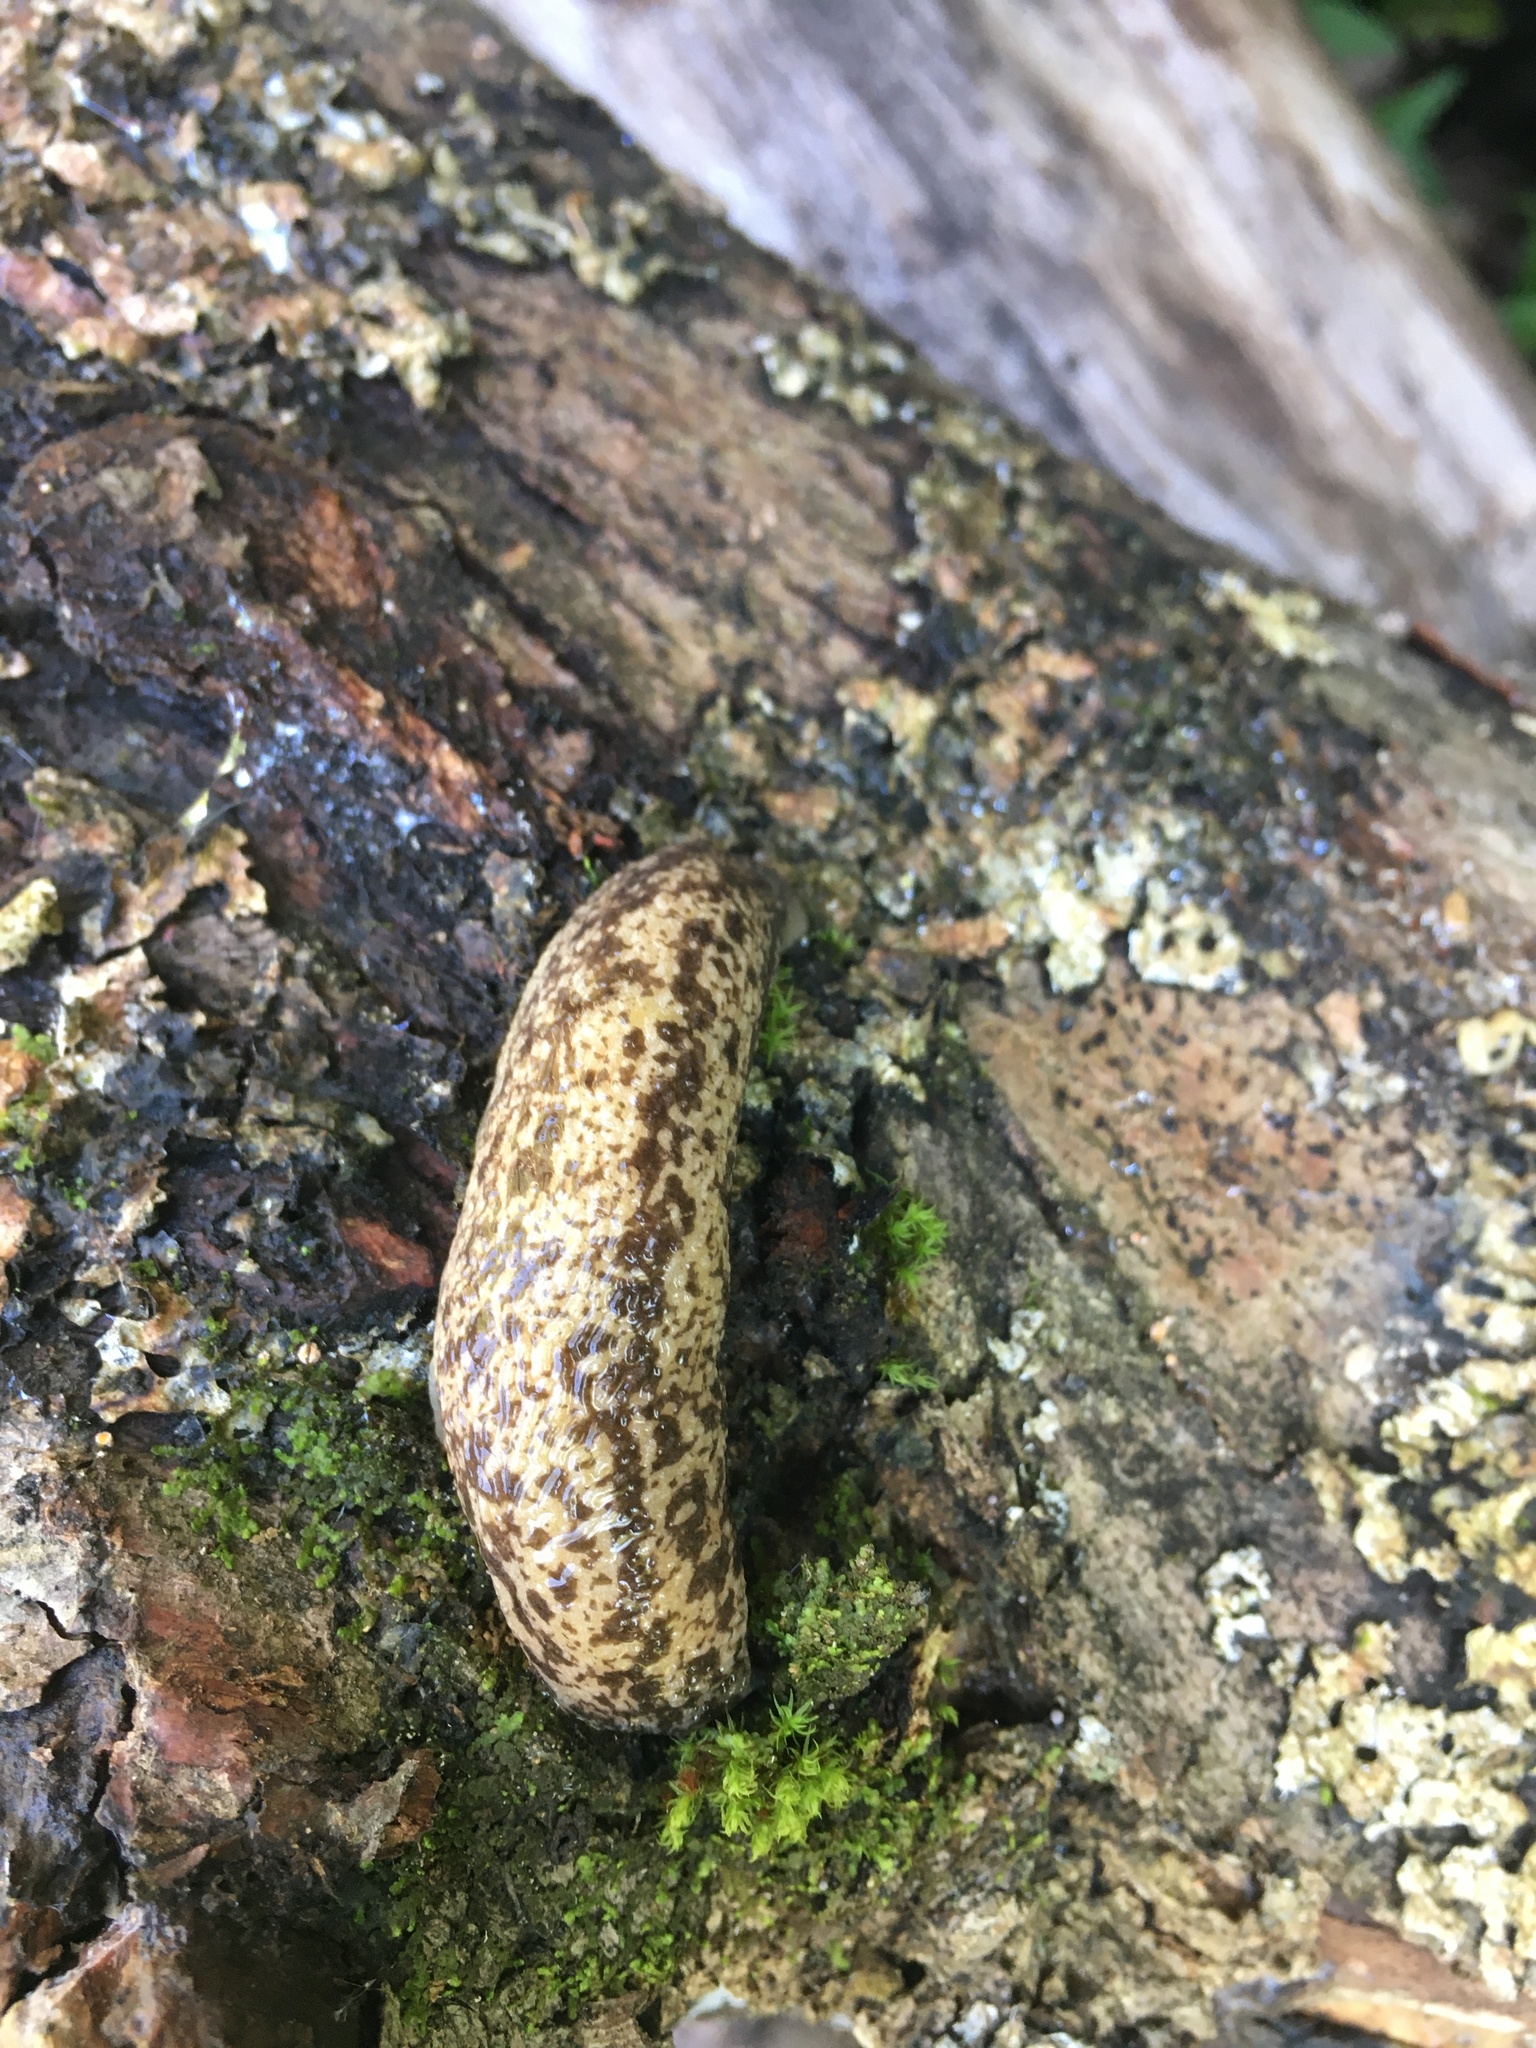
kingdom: Animalia
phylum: Mollusca
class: Gastropoda
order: Stylommatophora
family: Philomycidae
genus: Philomycus
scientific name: Philomycus flexuolaris
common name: Winding mantleslug
